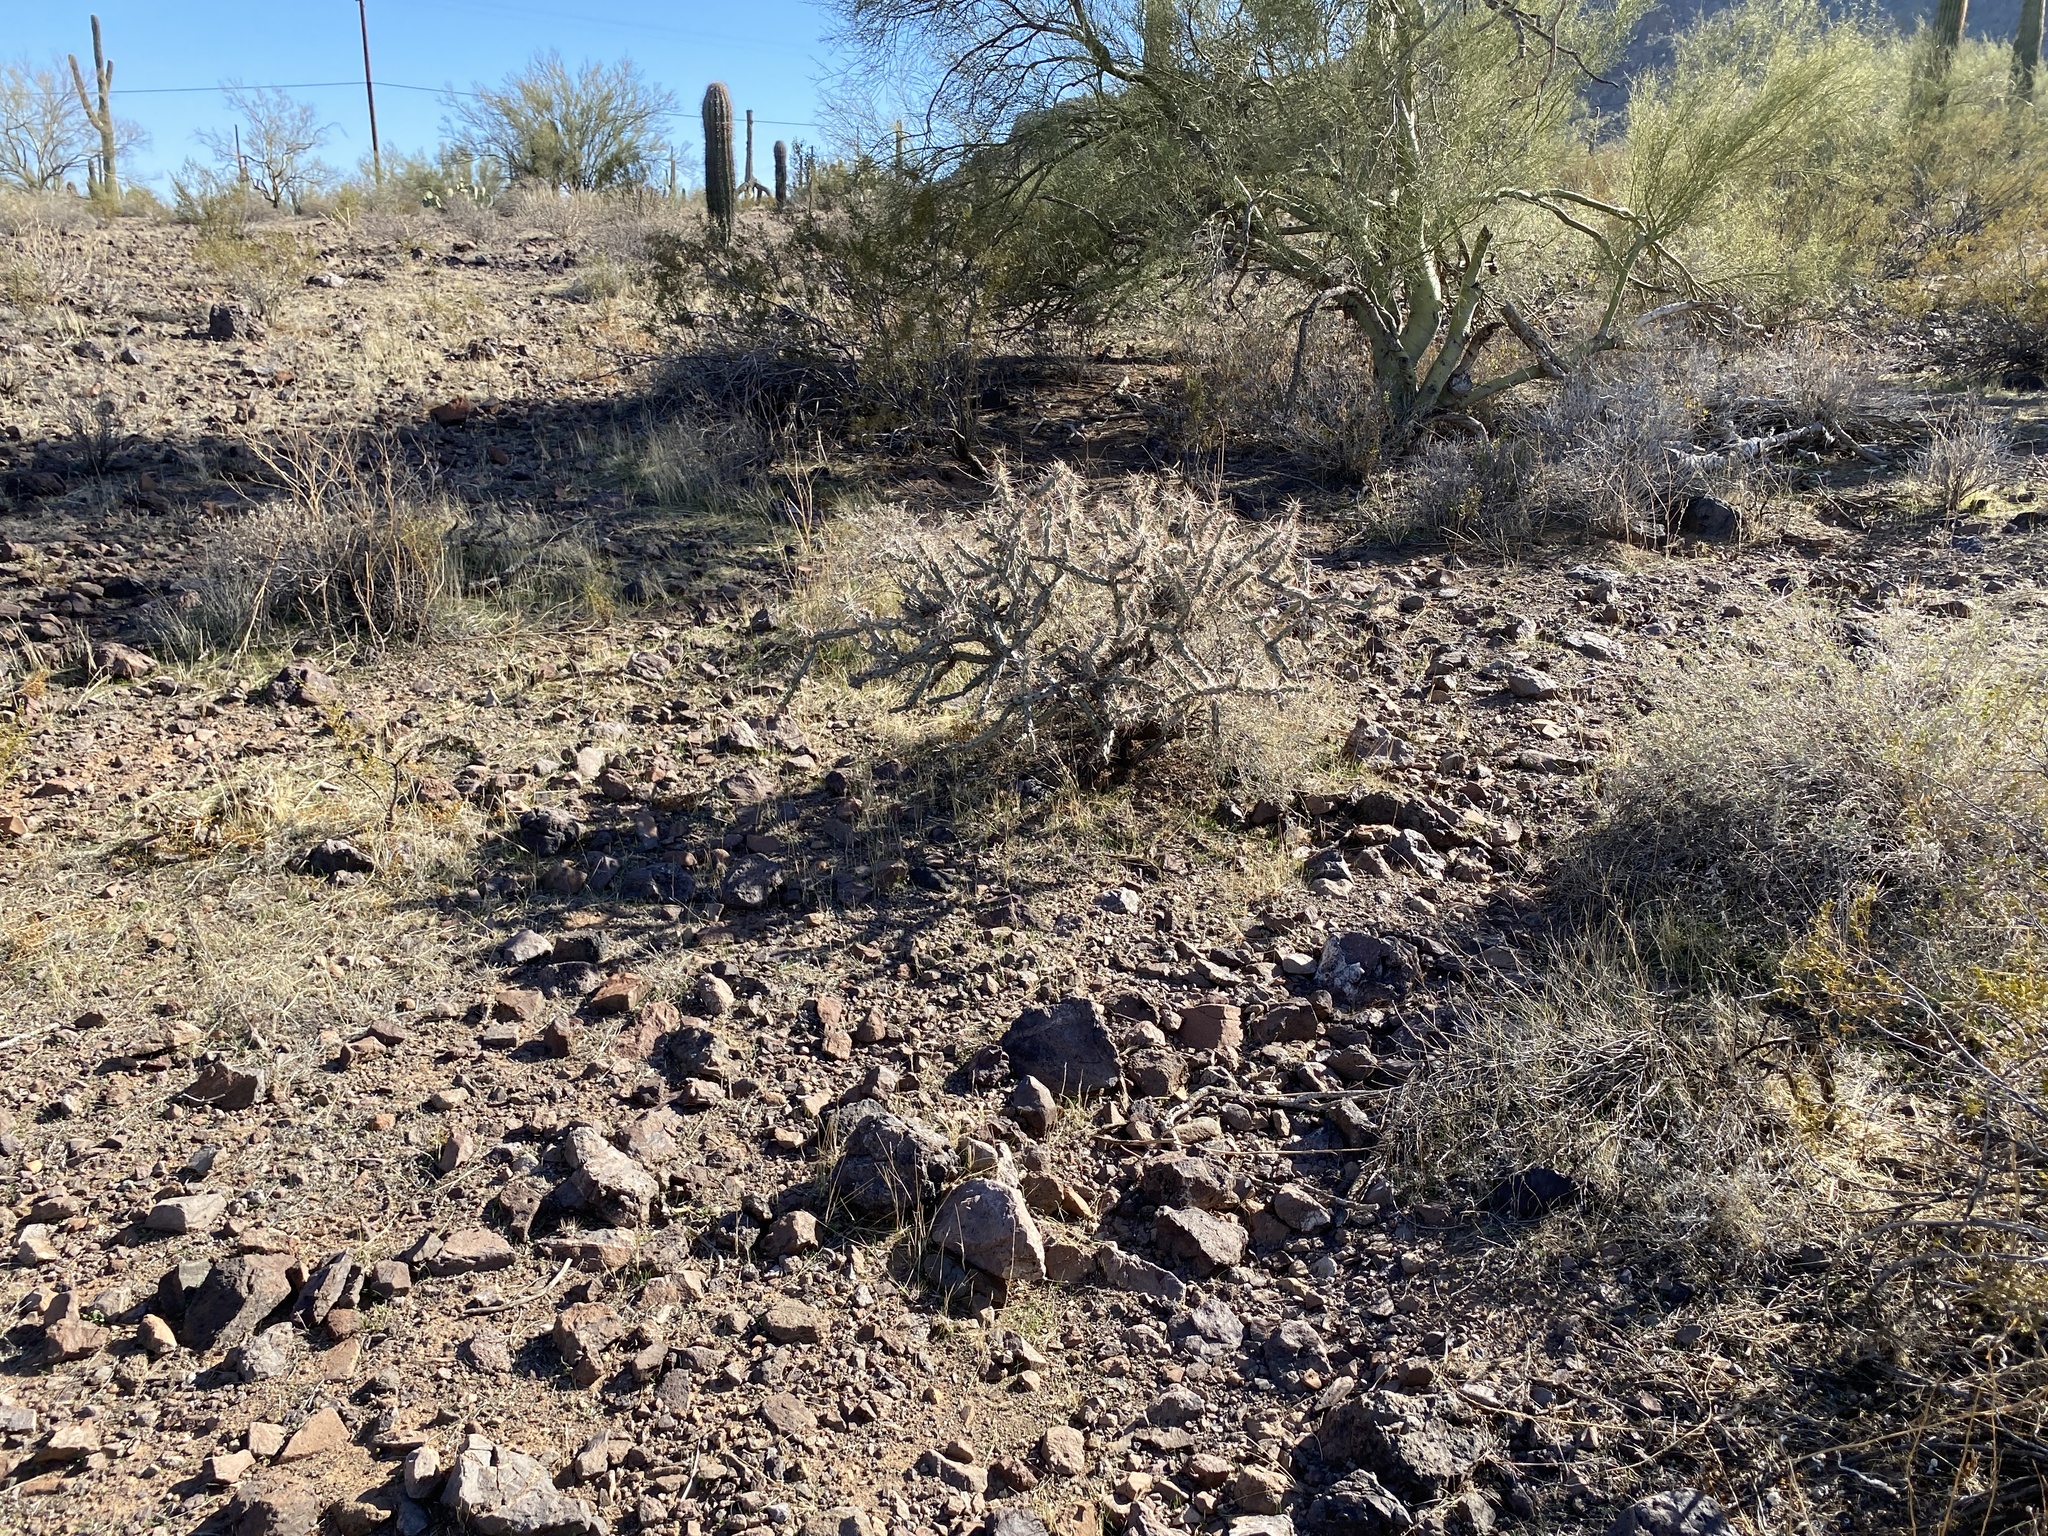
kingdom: Plantae
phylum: Tracheophyta
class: Magnoliopsida
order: Caryophyllales
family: Cactaceae
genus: Cylindropuntia
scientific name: Cylindropuntia acanthocarpa
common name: Buckhorn cholla
